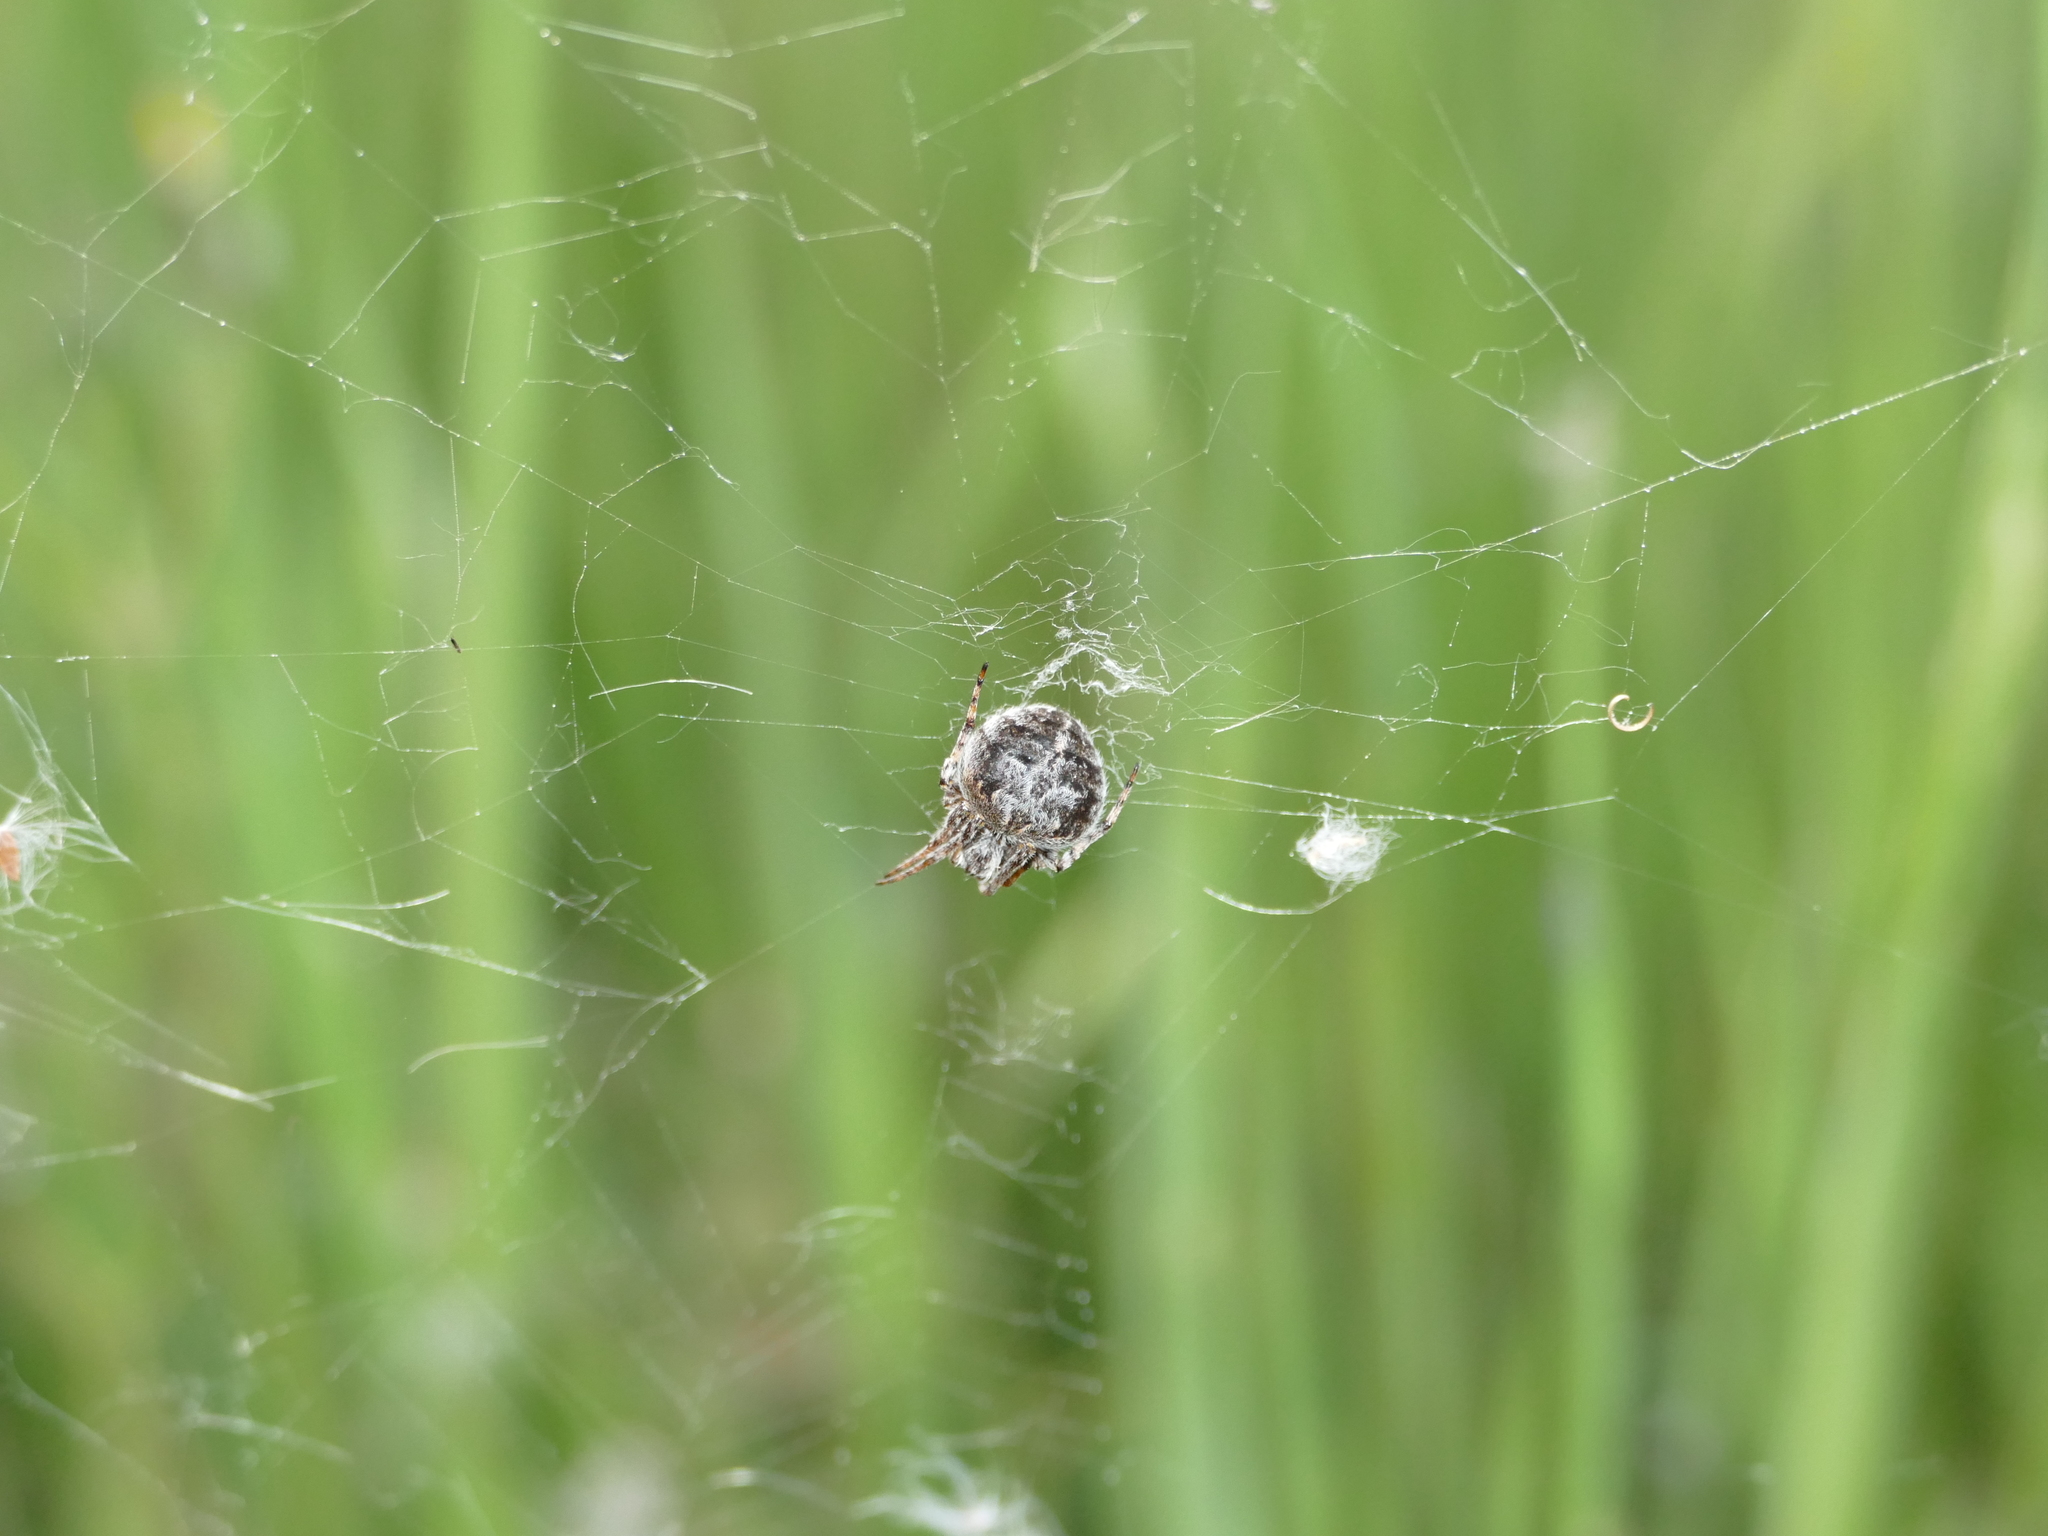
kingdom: Animalia
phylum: Arthropoda
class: Arachnida
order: Araneae
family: Araneidae
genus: Agalenatea
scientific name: Agalenatea redii
